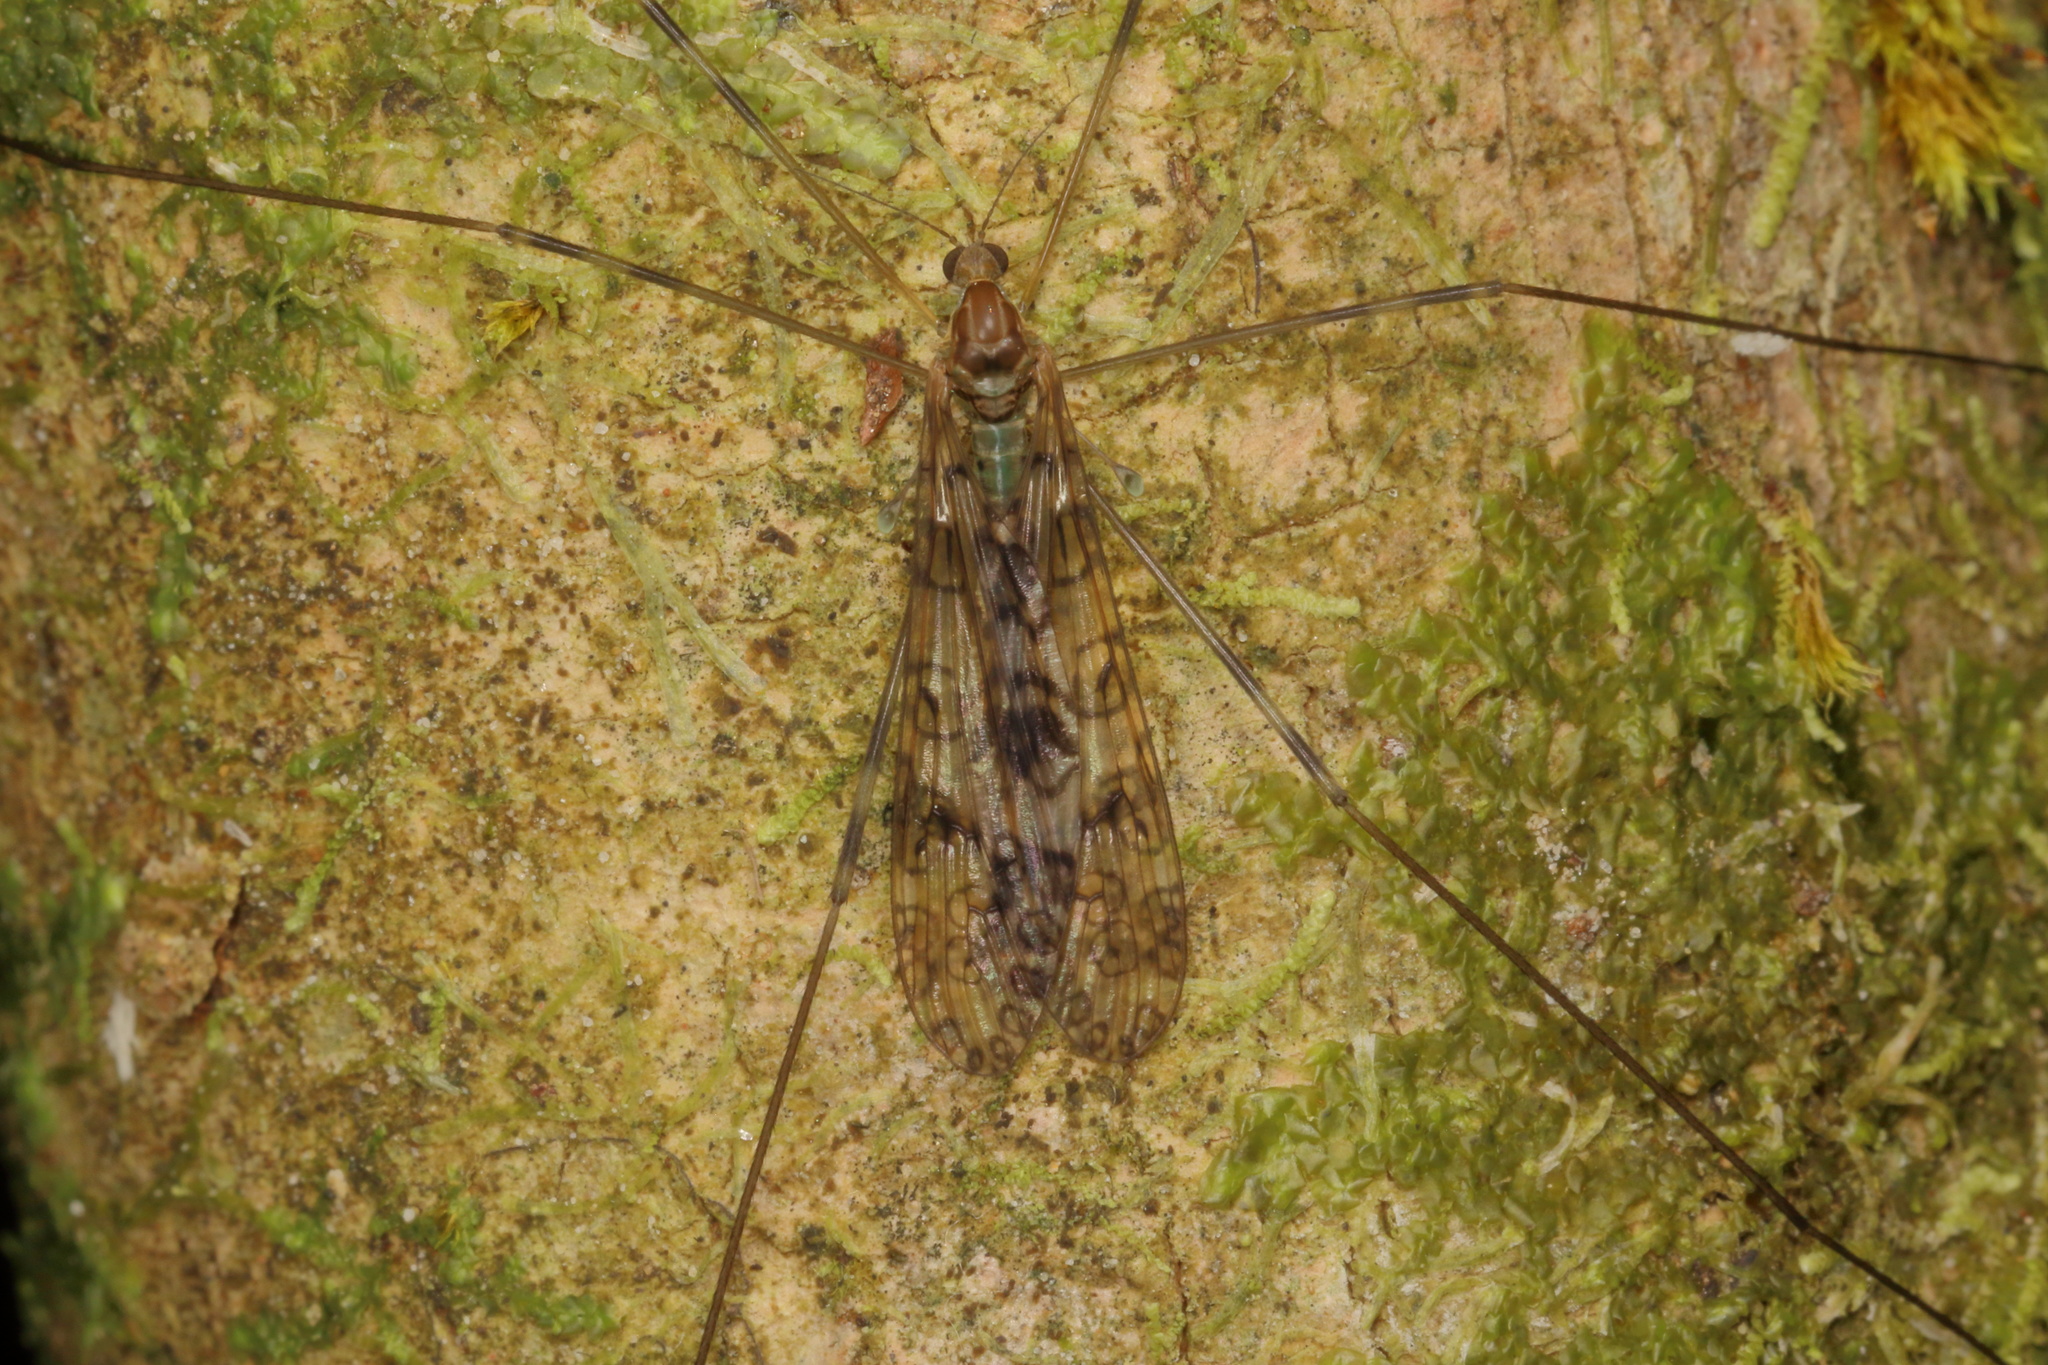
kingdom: Animalia
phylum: Arthropoda
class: Insecta
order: Diptera
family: Limoniidae
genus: Austrolimnophila
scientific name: Austrolimnophila argus
